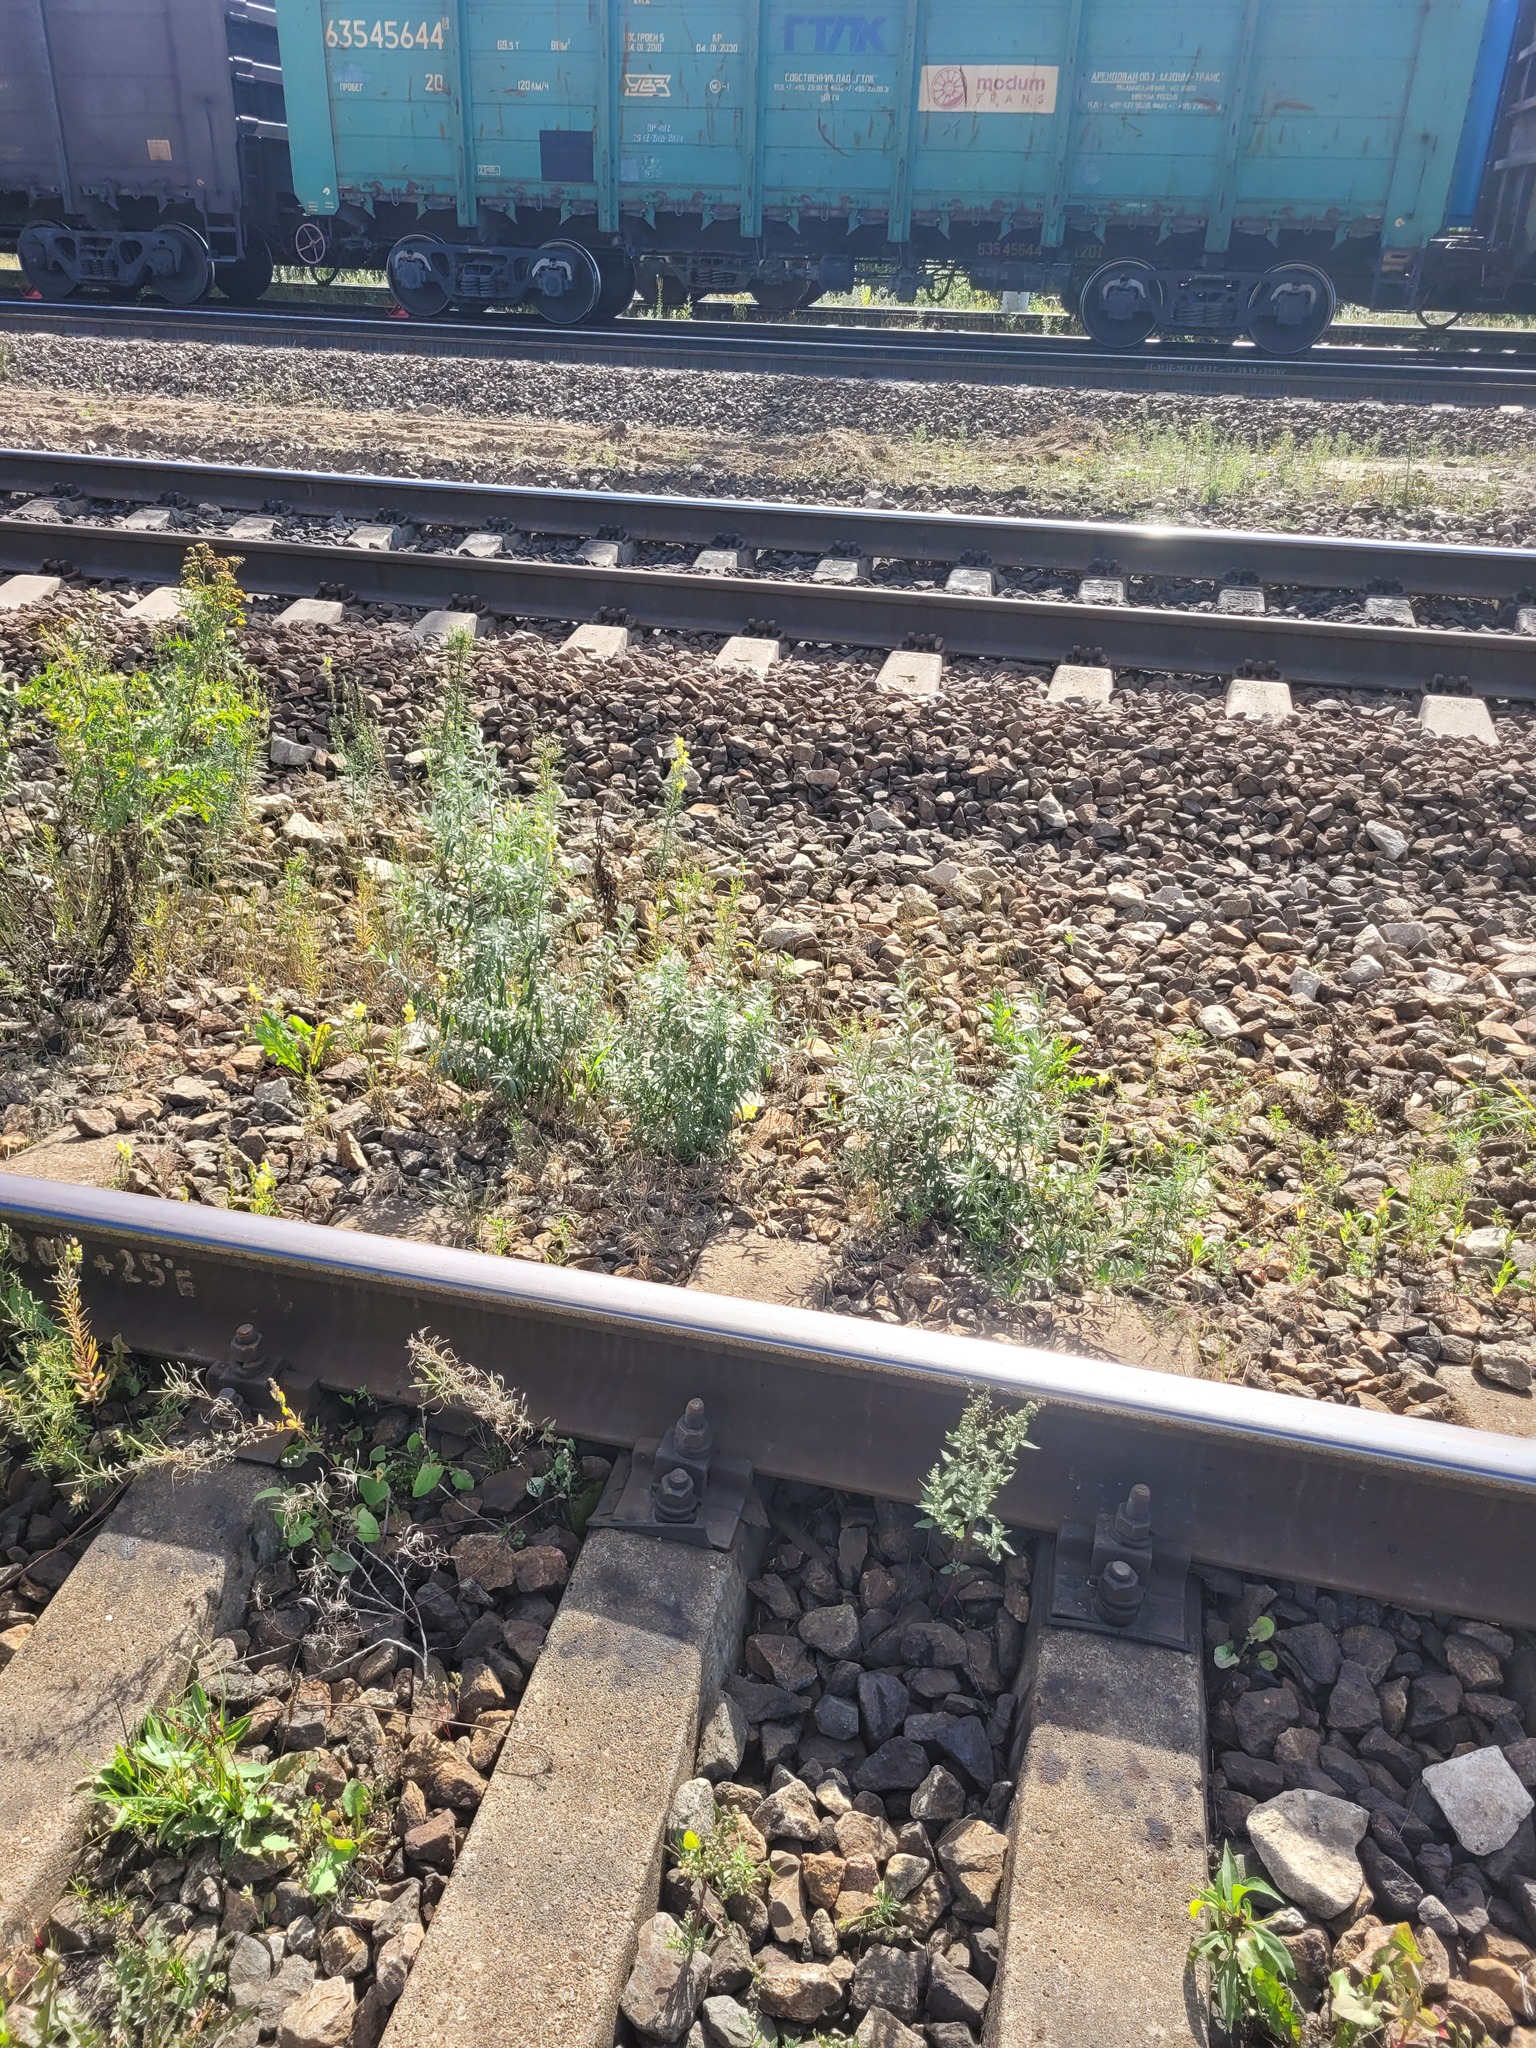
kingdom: Plantae
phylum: Tracheophyta
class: Magnoliopsida
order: Rosales
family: Elaeagnaceae
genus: Hippophae
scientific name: Hippophae rhamnoides
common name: Sea-buckthorn
